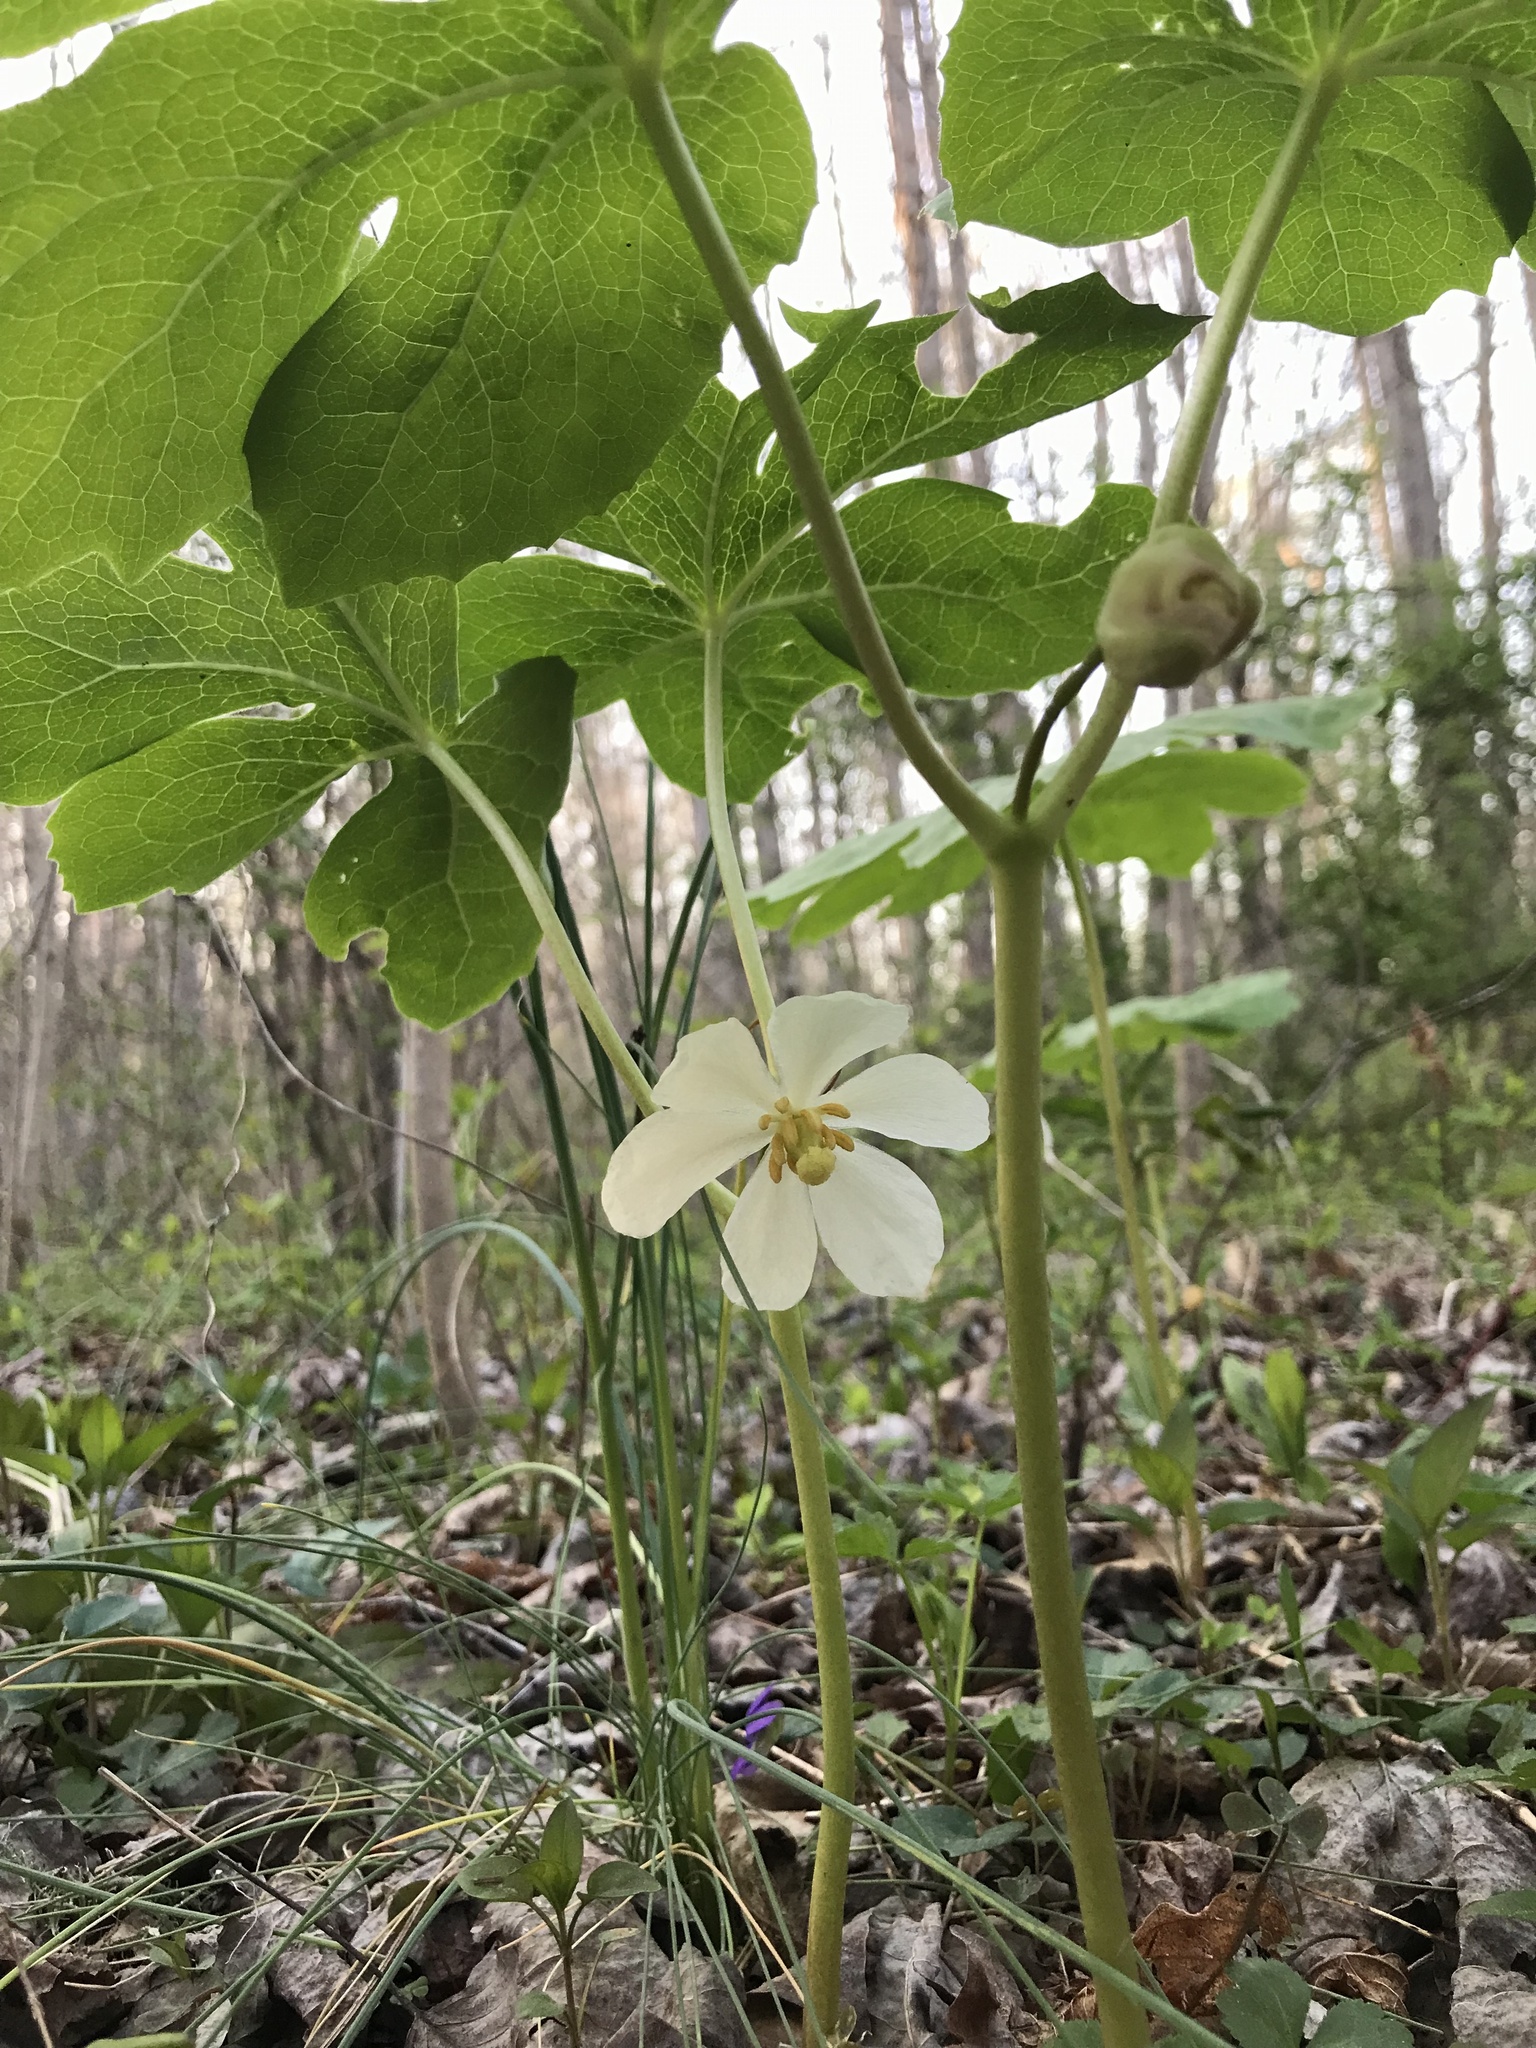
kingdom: Plantae
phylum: Tracheophyta
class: Magnoliopsida
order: Ranunculales
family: Berberidaceae
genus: Podophyllum
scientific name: Podophyllum peltatum
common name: Wild mandrake
